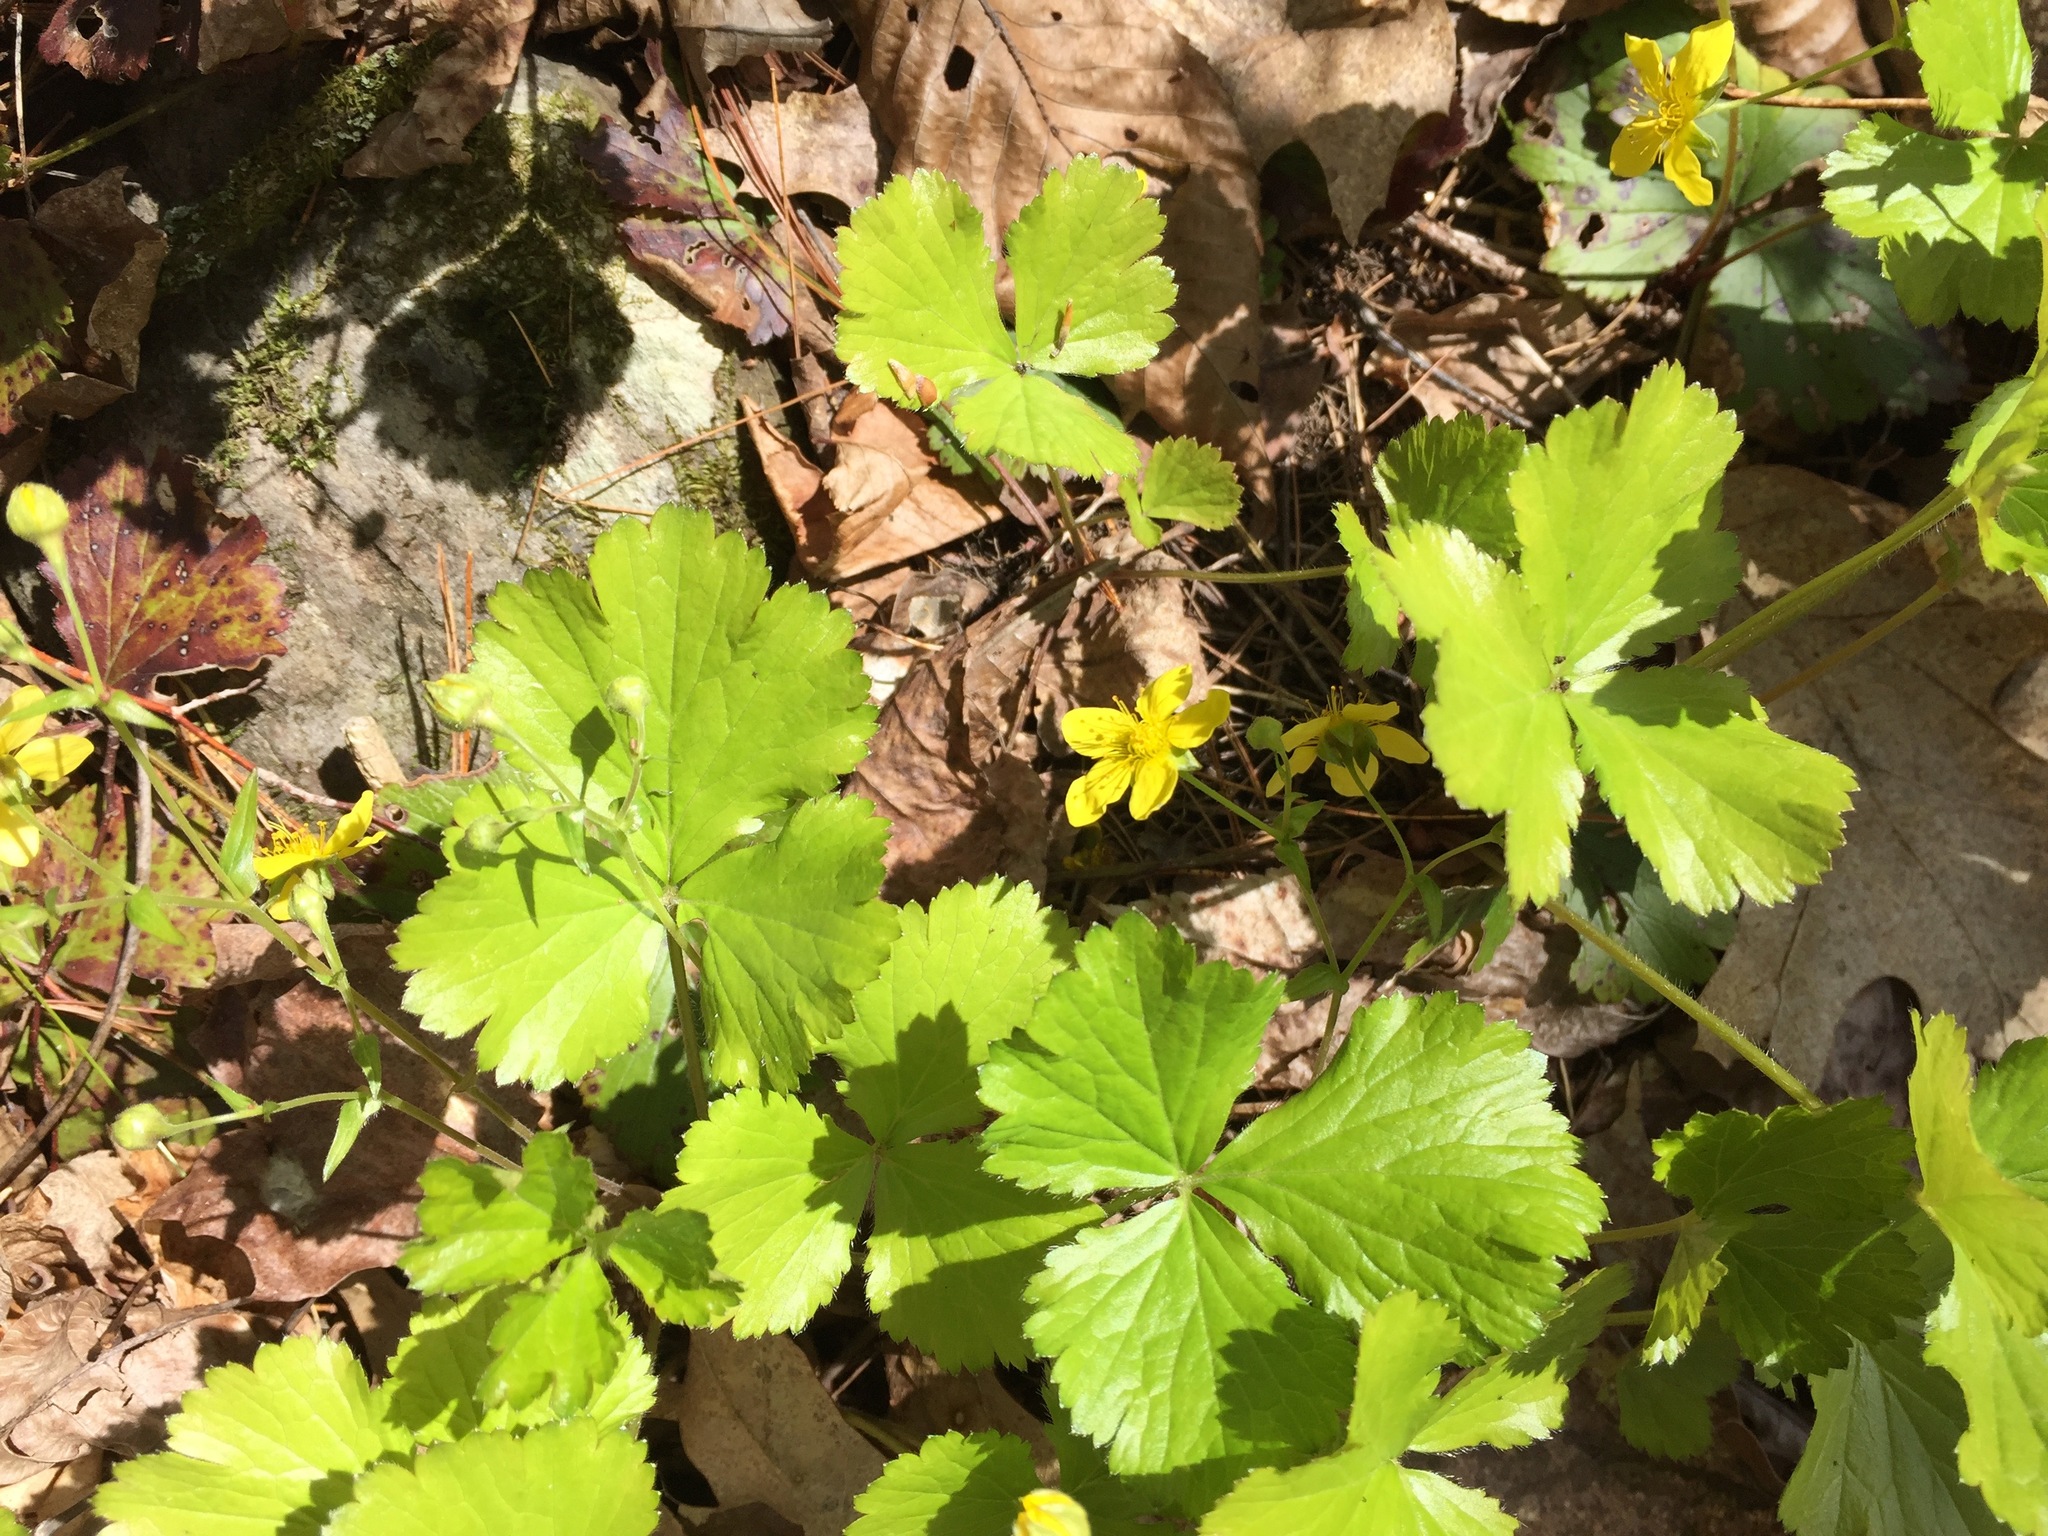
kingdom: Plantae
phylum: Tracheophyta
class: Magnoliopsida
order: Rosales
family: Rosaceae
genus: Geum
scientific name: Geum fragarioides
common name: Appalachian barren strawberry
